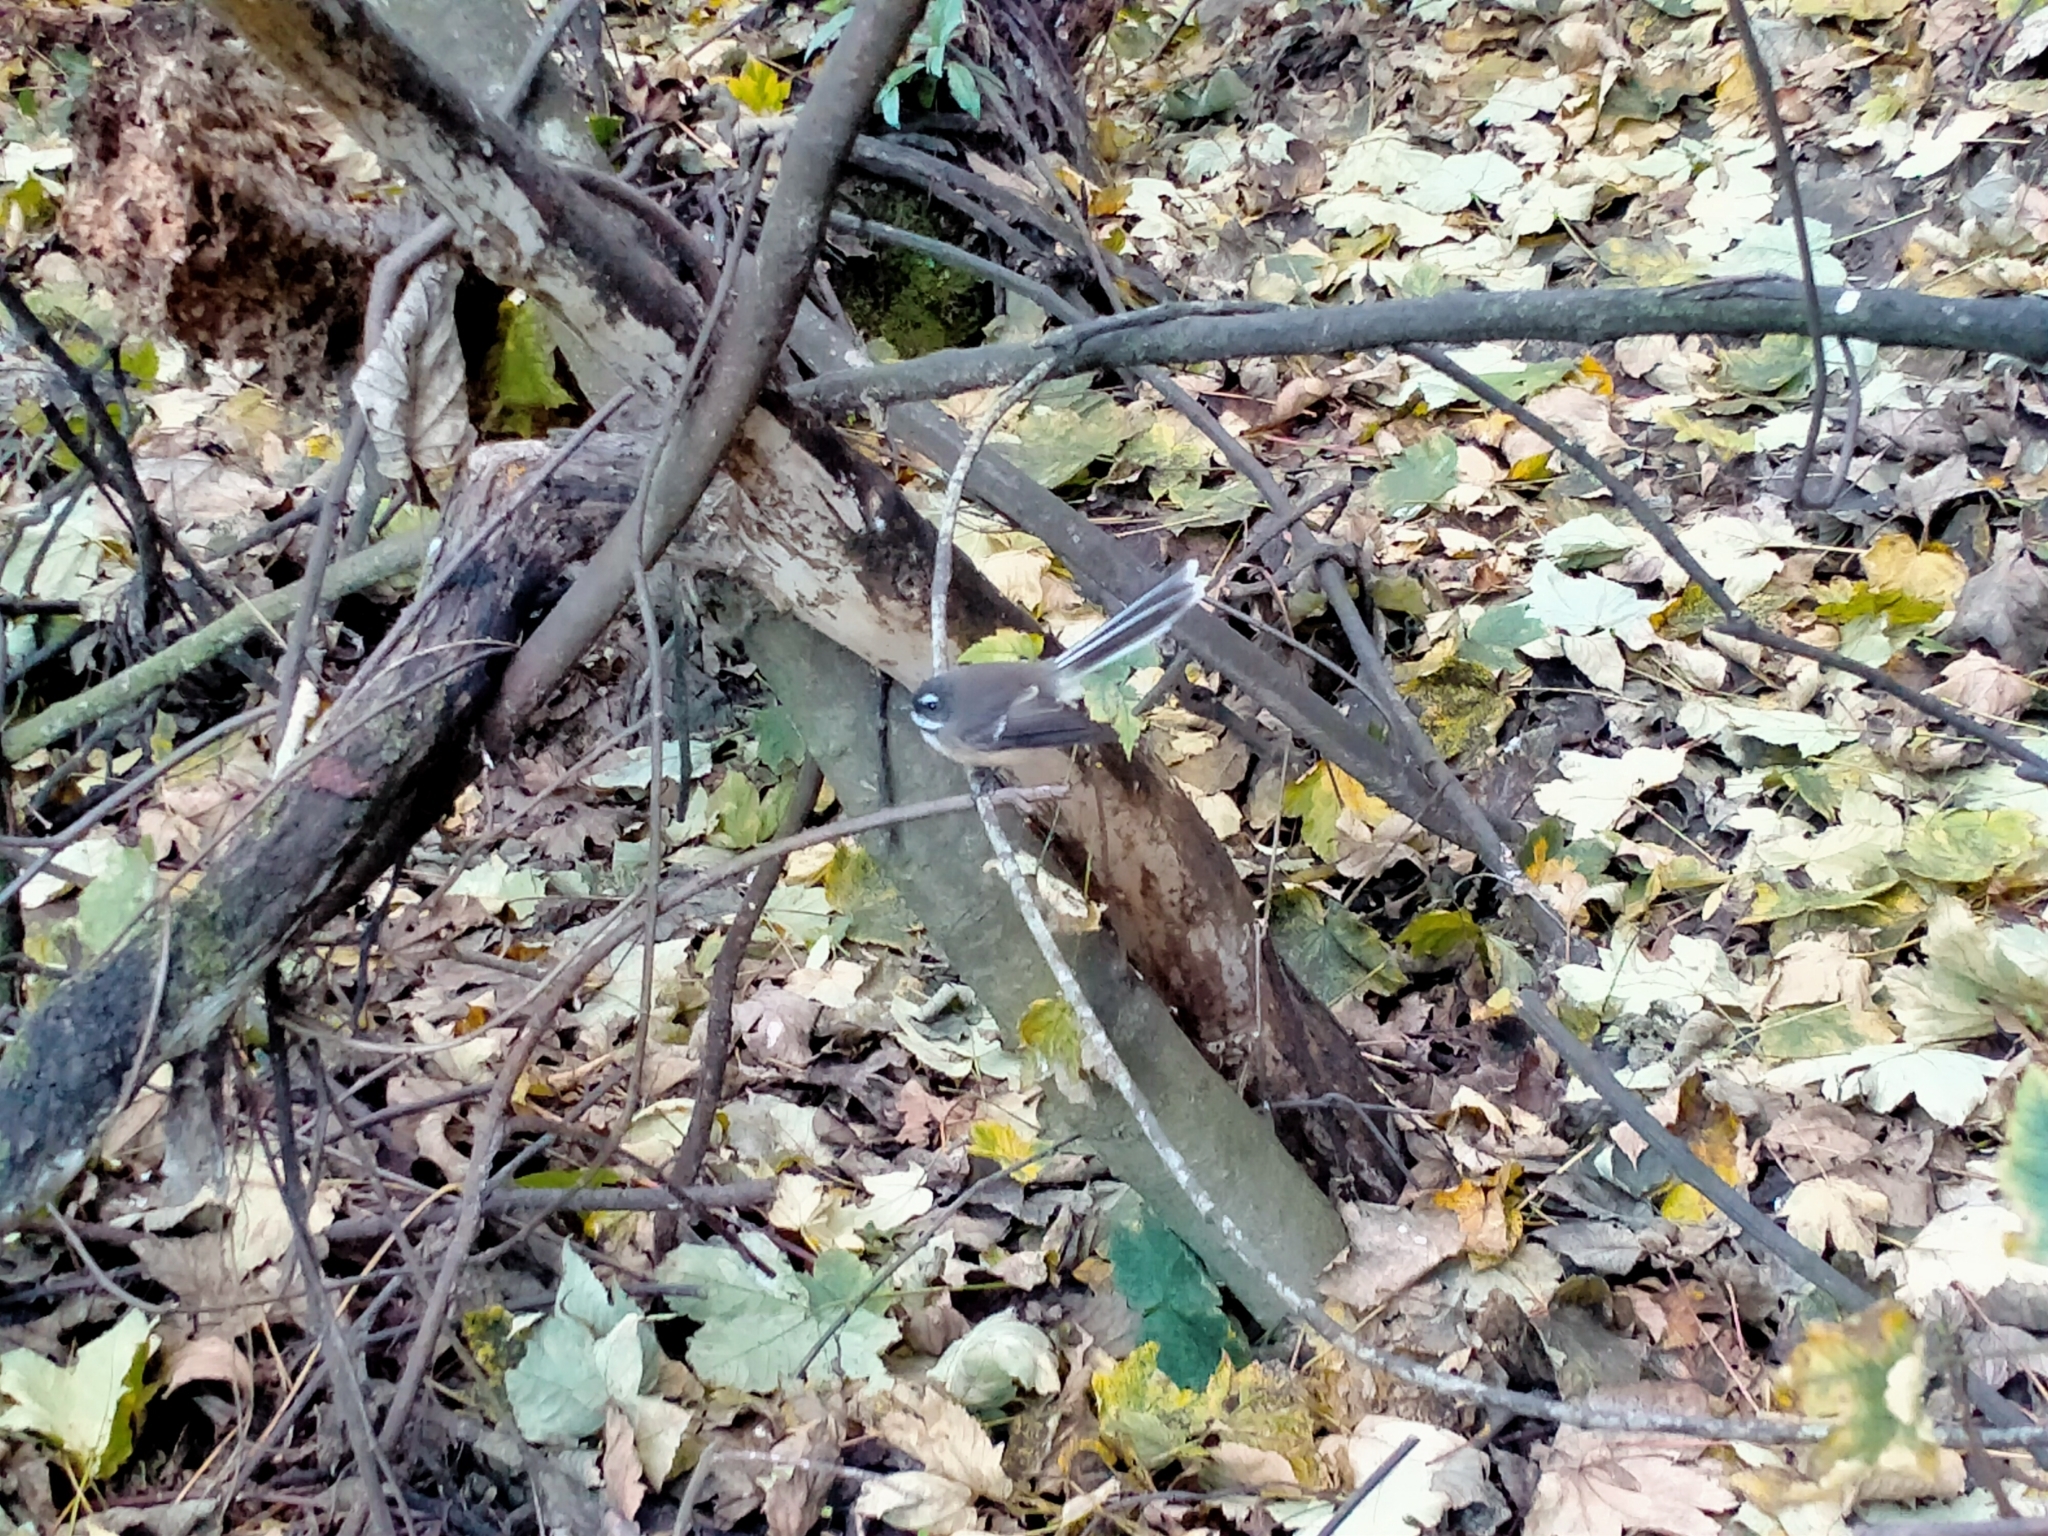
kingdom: Animalia
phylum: Chordata
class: Aves
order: Passeriformes
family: Rhipiduridae
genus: Rhipidura
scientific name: Rhipidura fuliginosa
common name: New zealand fantail
